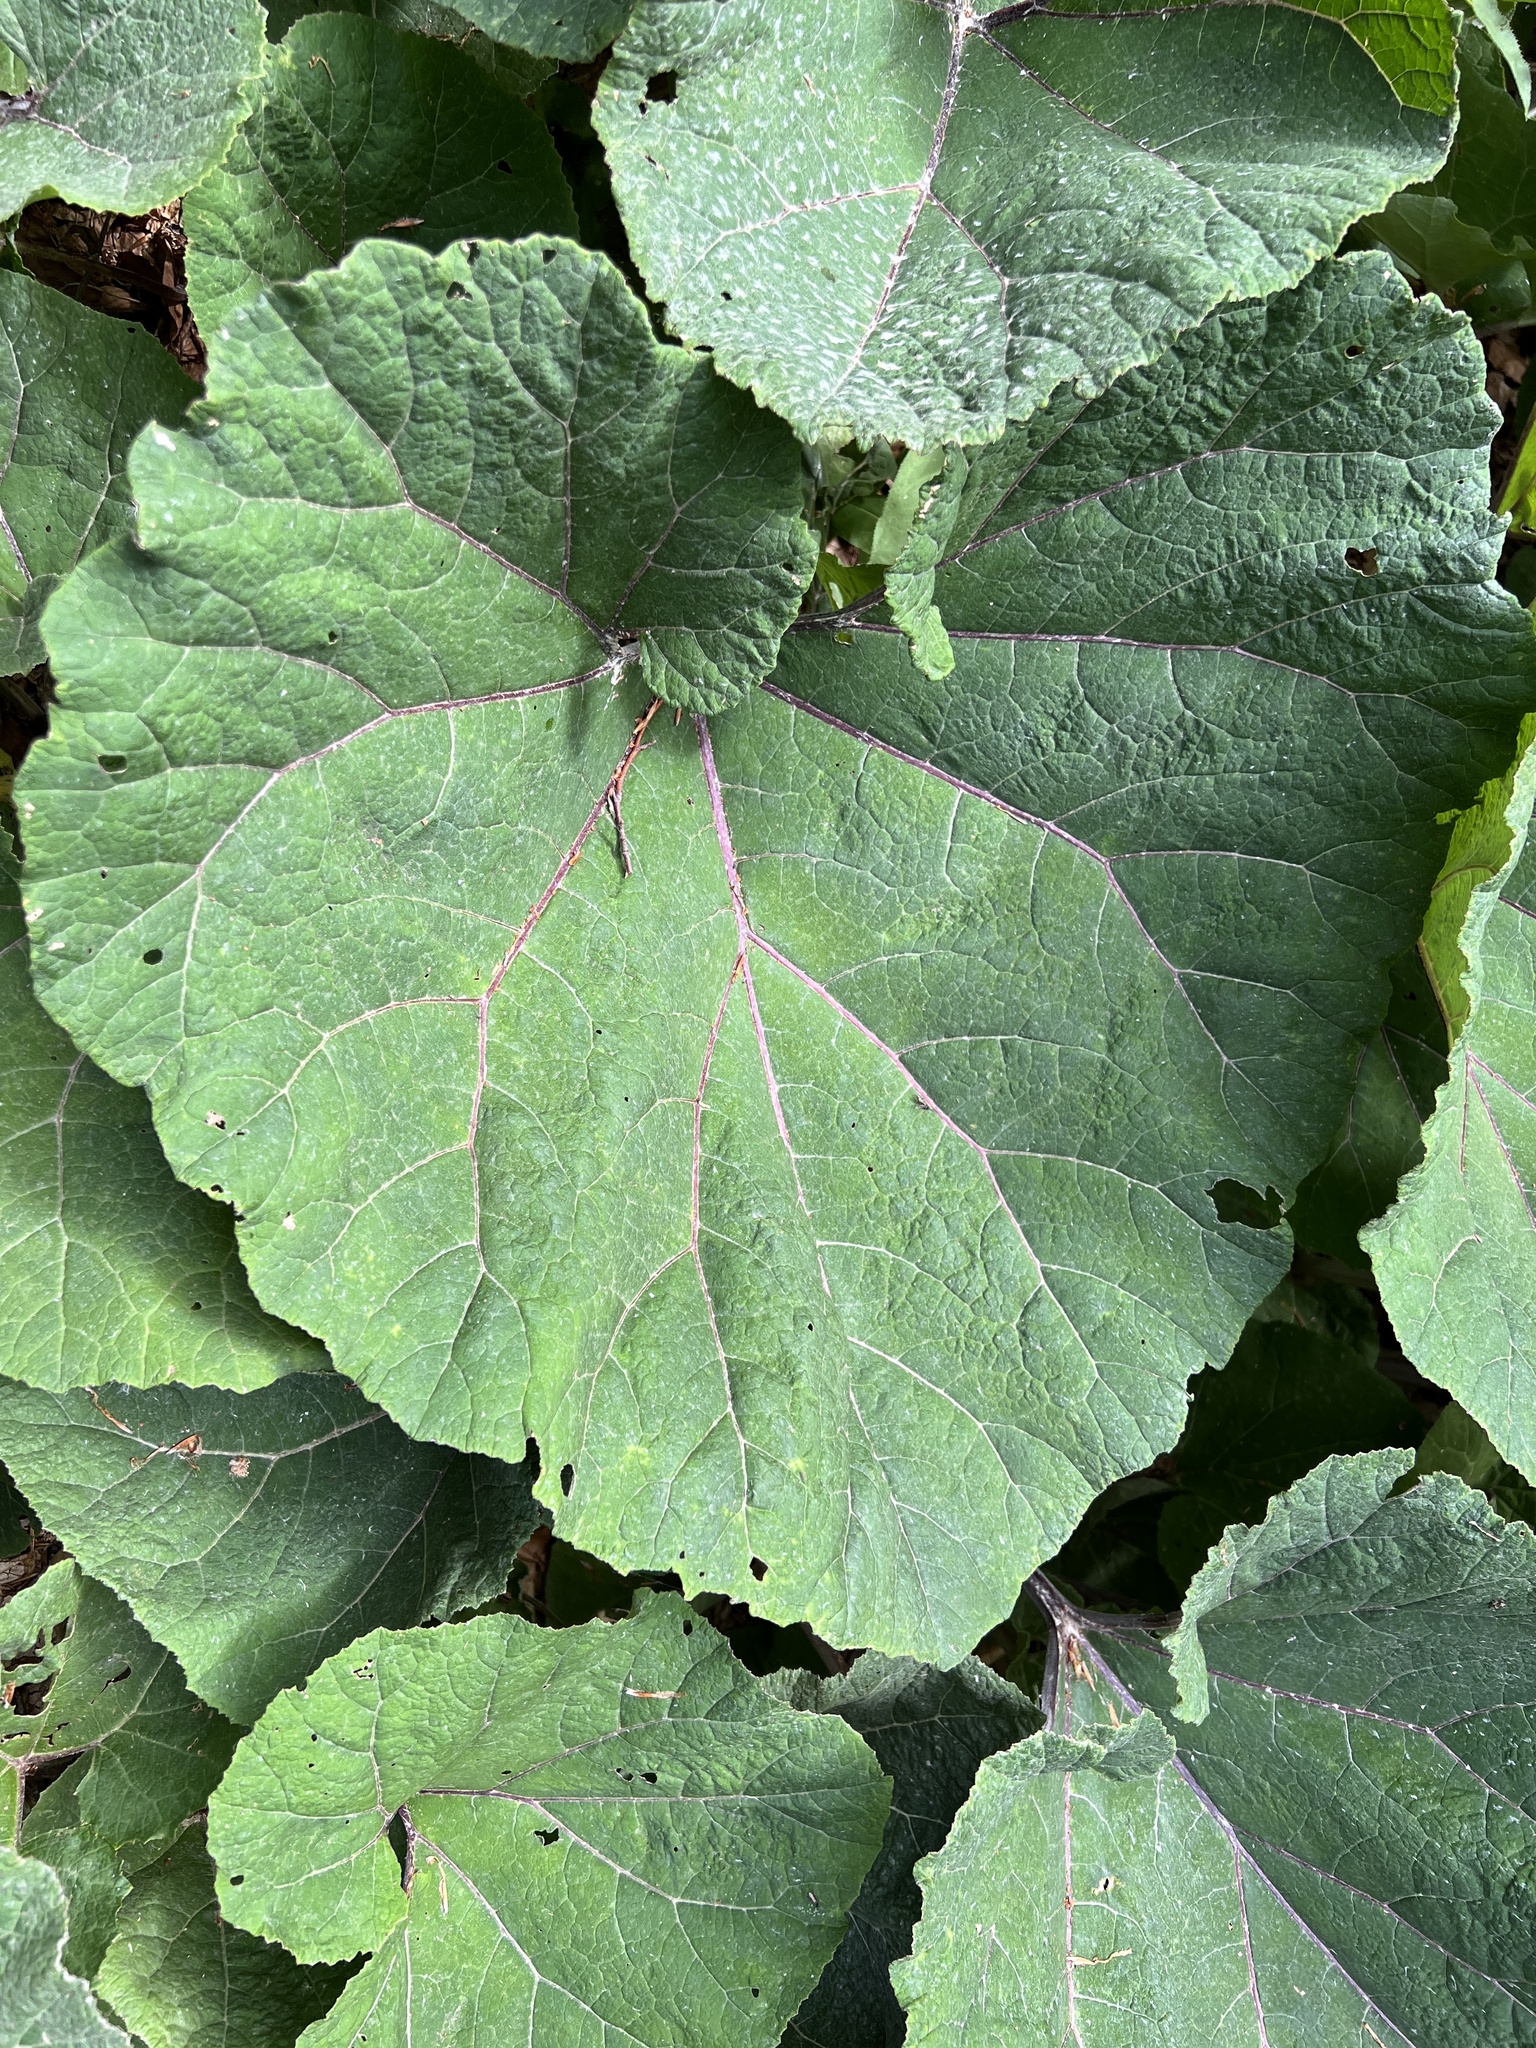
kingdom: Plantae
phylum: Tracheophyta
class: Magnoliopsida
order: Asterales
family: Asteraceae
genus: Petasites
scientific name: Petasites hybridus
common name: Butterbur
